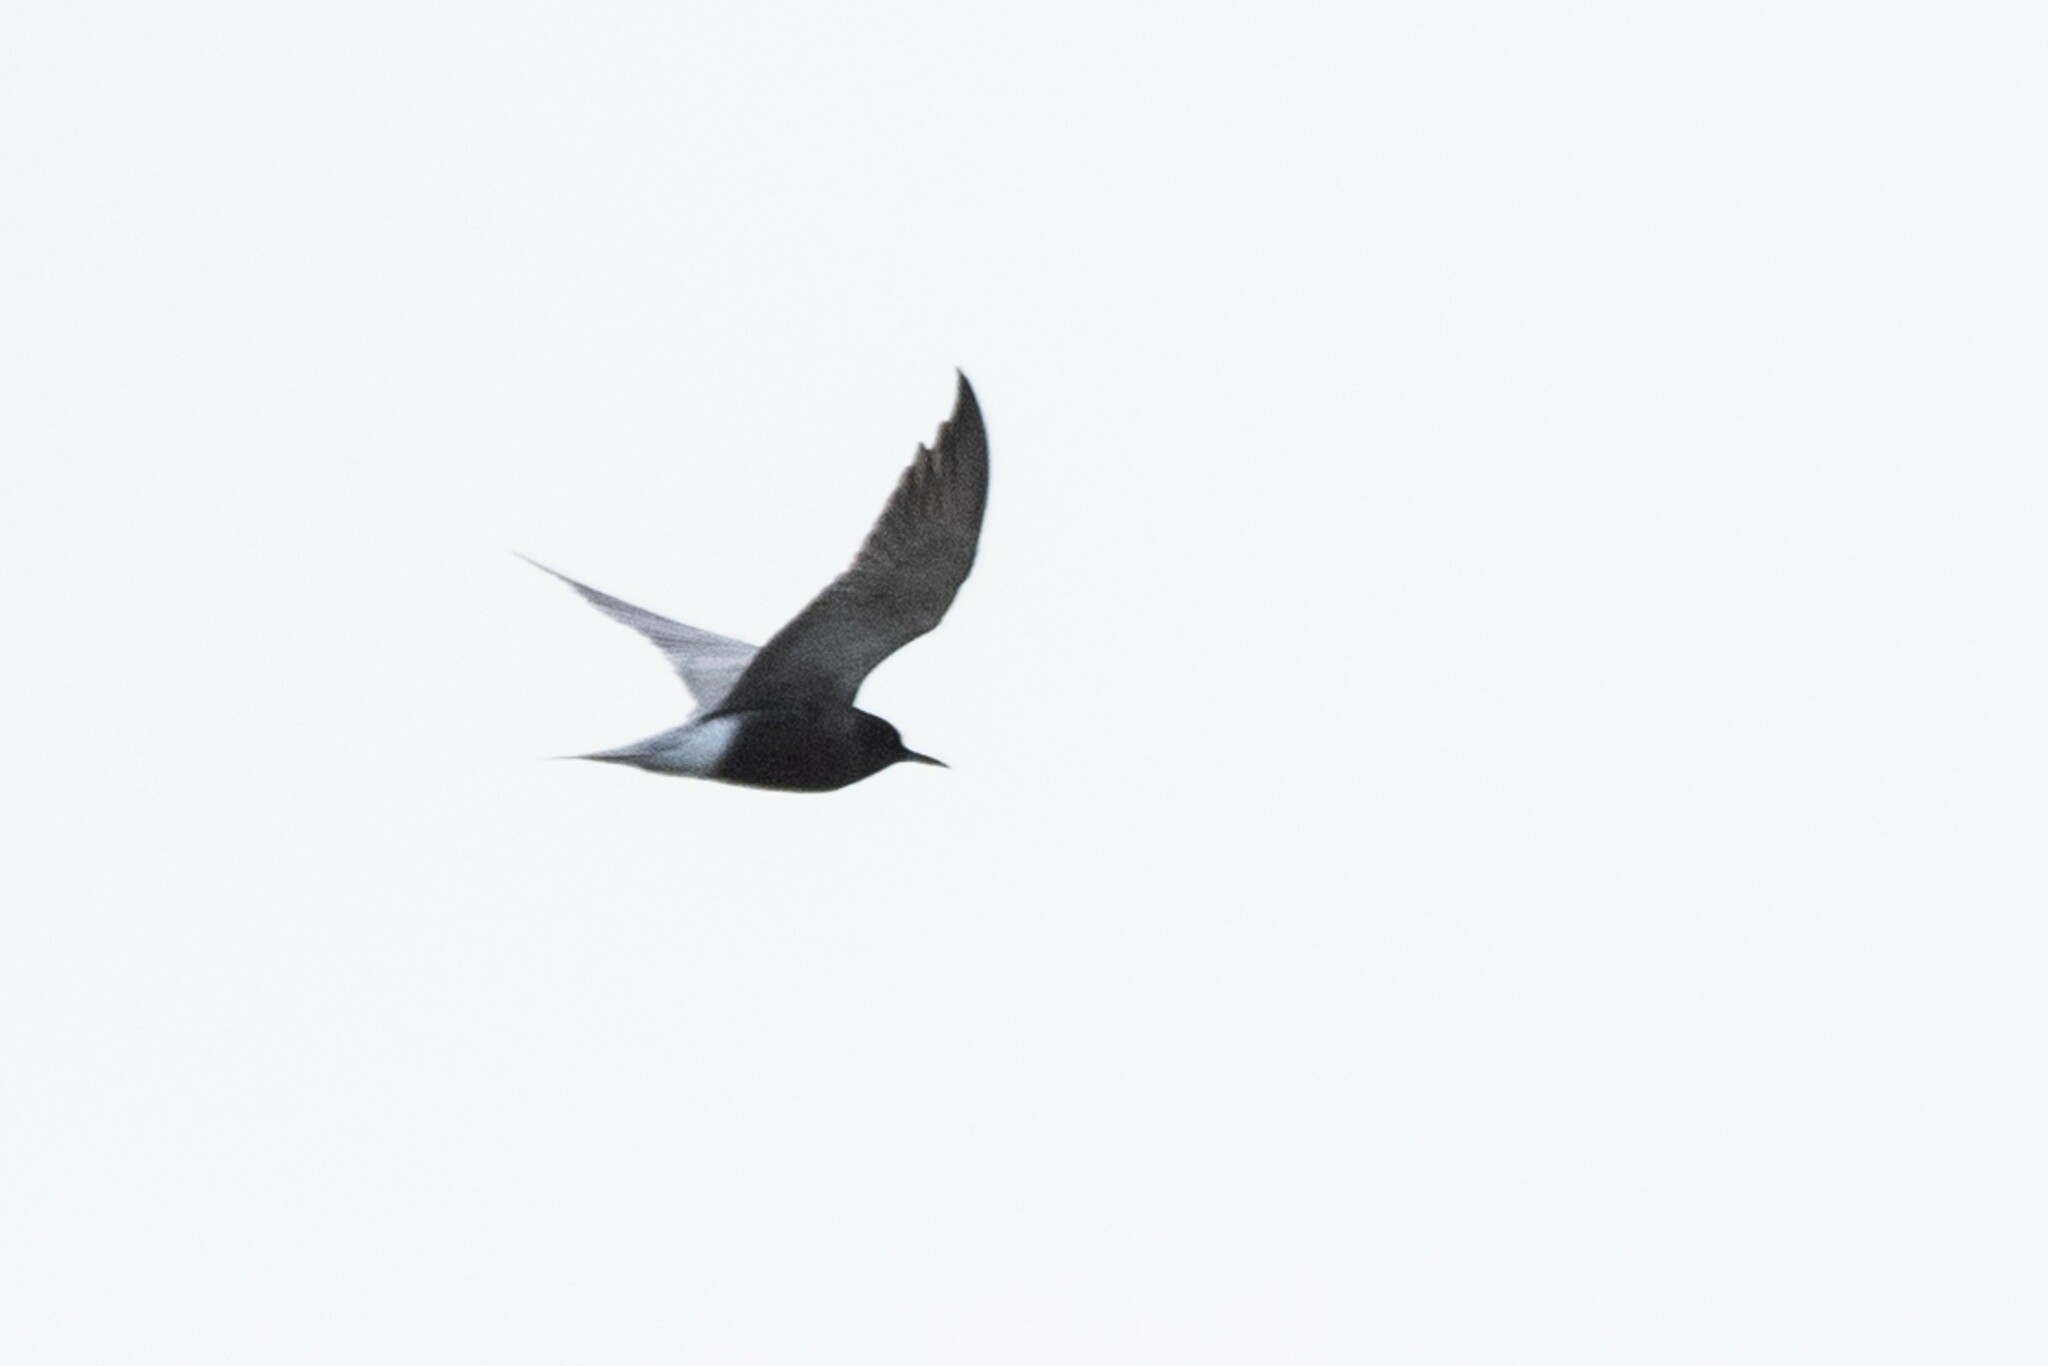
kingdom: Animalia
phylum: Chordata
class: Aves
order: Charadriiformes
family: Laridae
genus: Chlidonias
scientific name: Chlidonias niger
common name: Black tern
